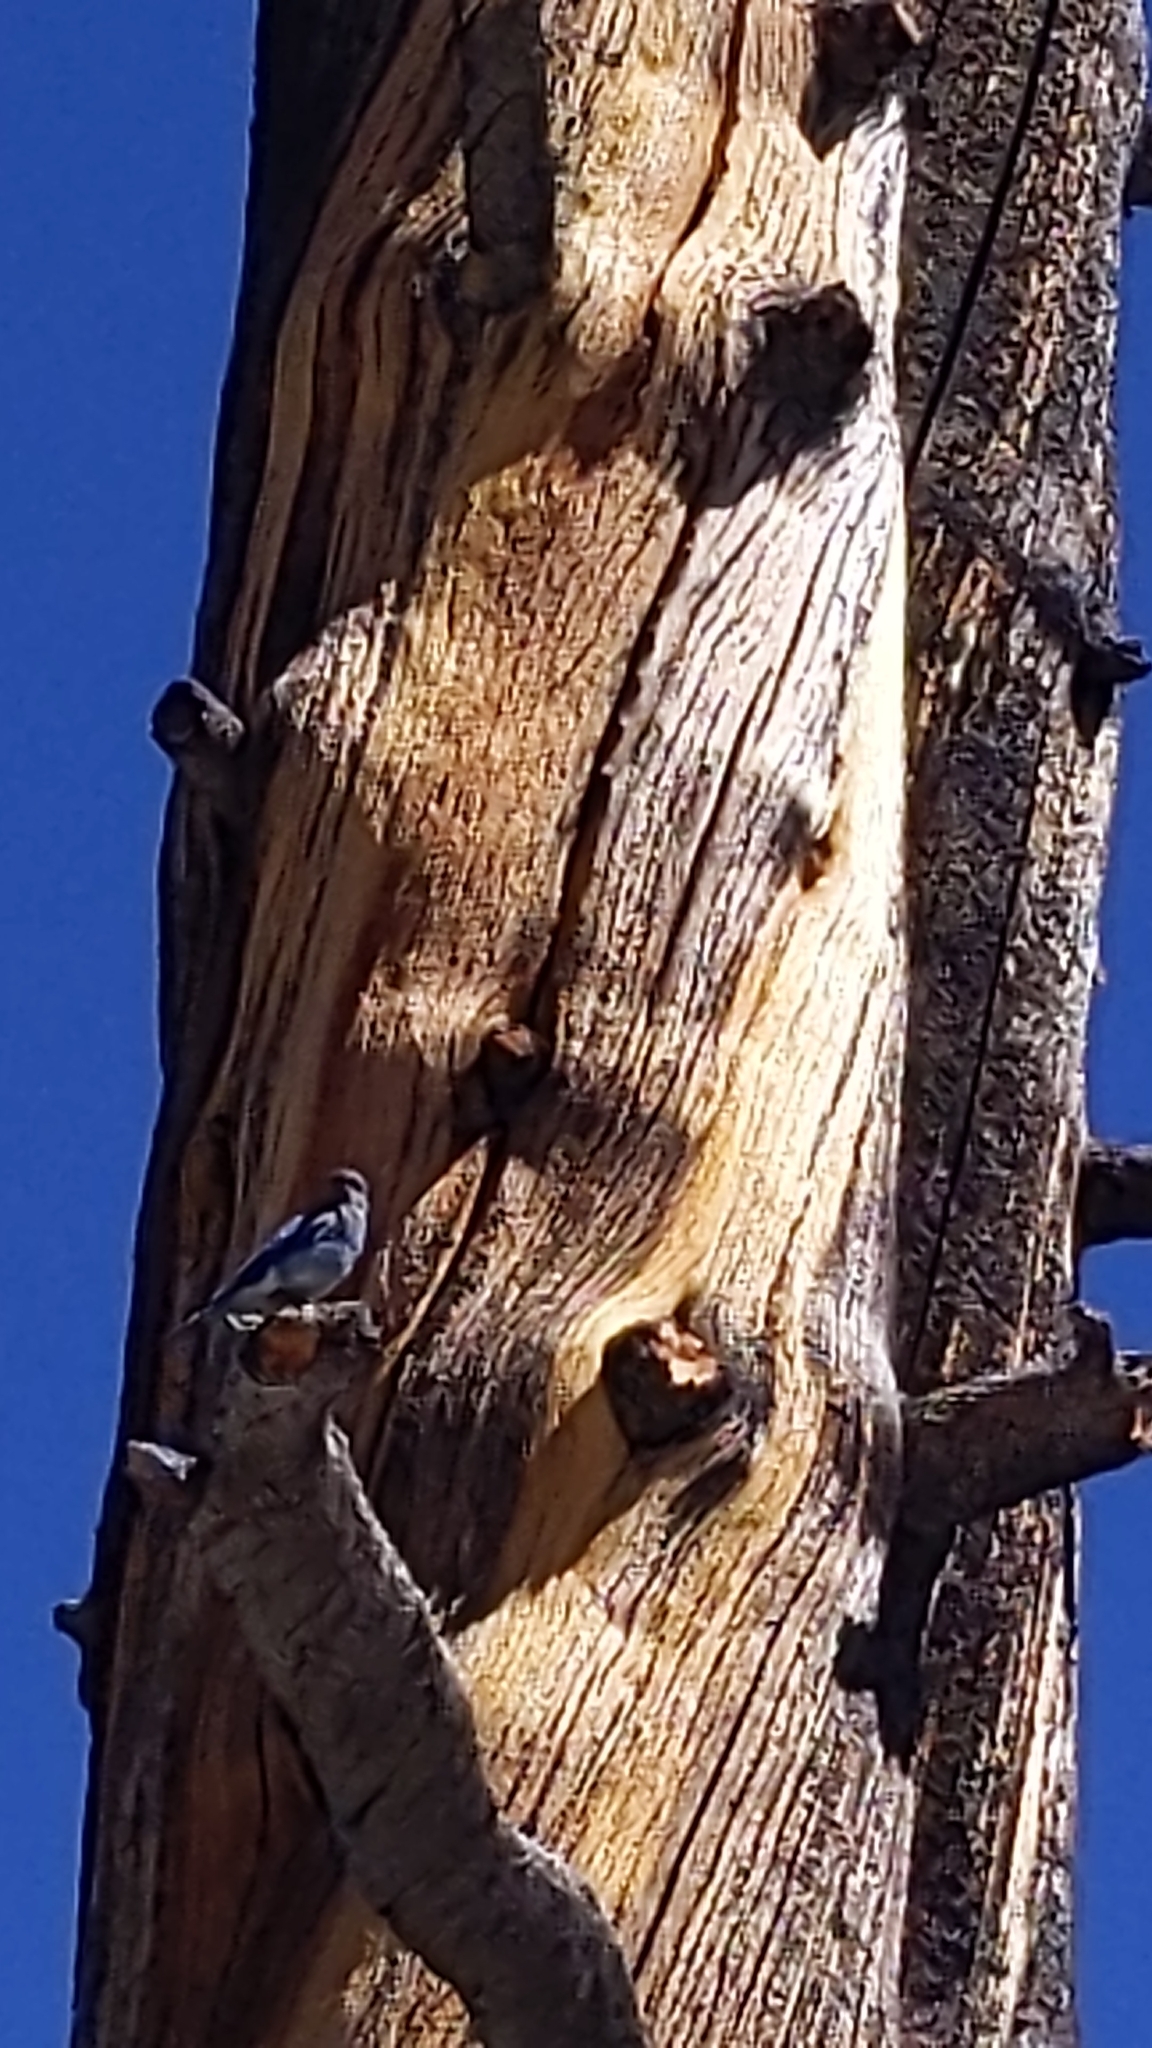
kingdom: Animalia
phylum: Chordata
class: Aves
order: Passeriformes
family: Turdidae
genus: Sialia
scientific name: Sialia currucoides
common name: Mountain bluebird
